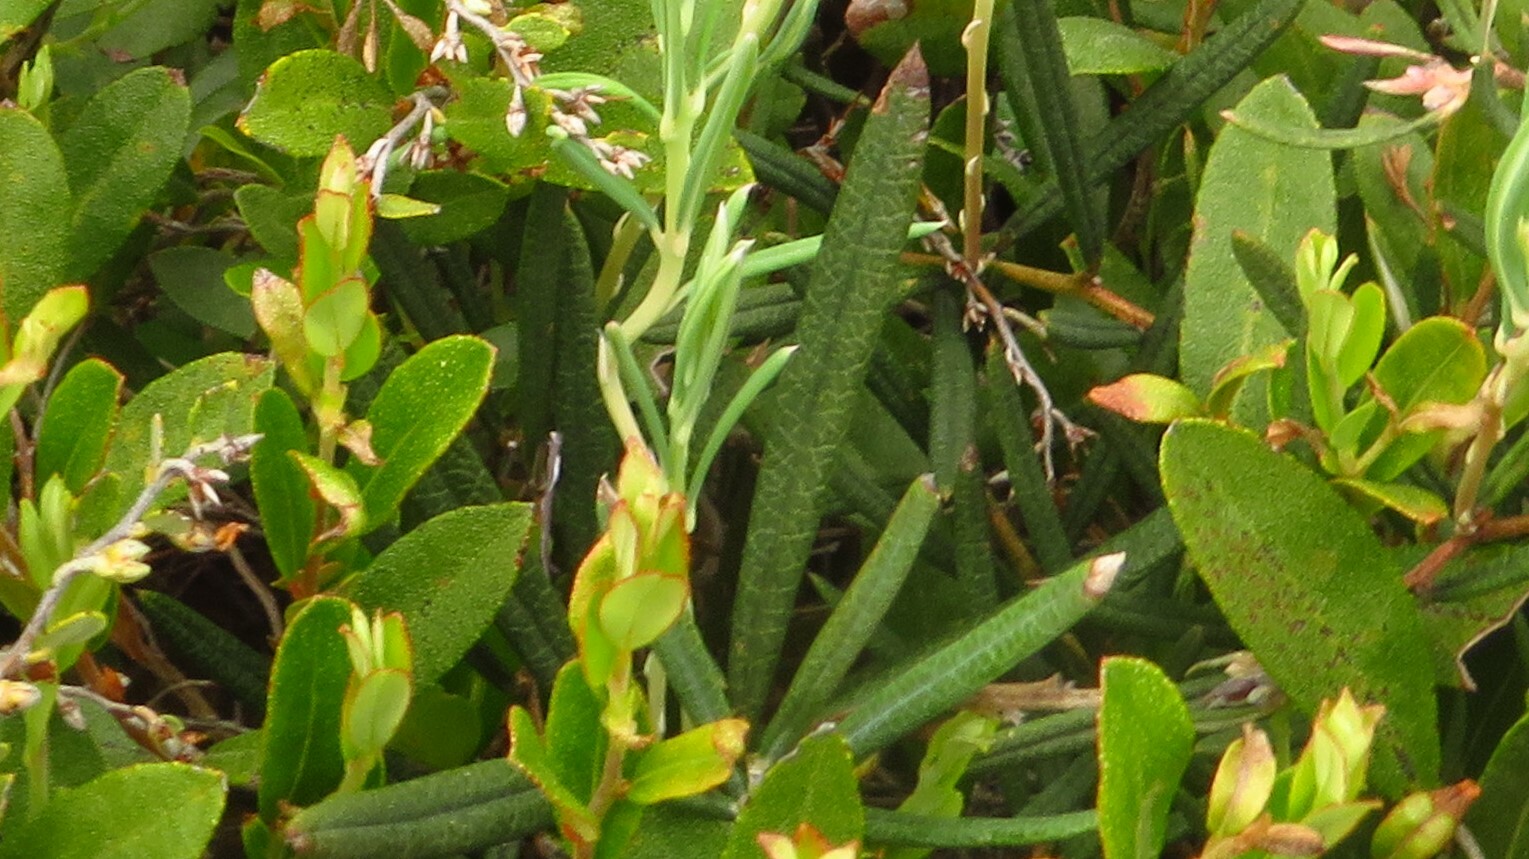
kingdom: Plantae
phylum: Tracheophyta
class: Magnoliopsida
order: Ericales
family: Ericaceae
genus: Andromeda
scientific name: Andromeda polifolia
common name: Bog-rosemary
